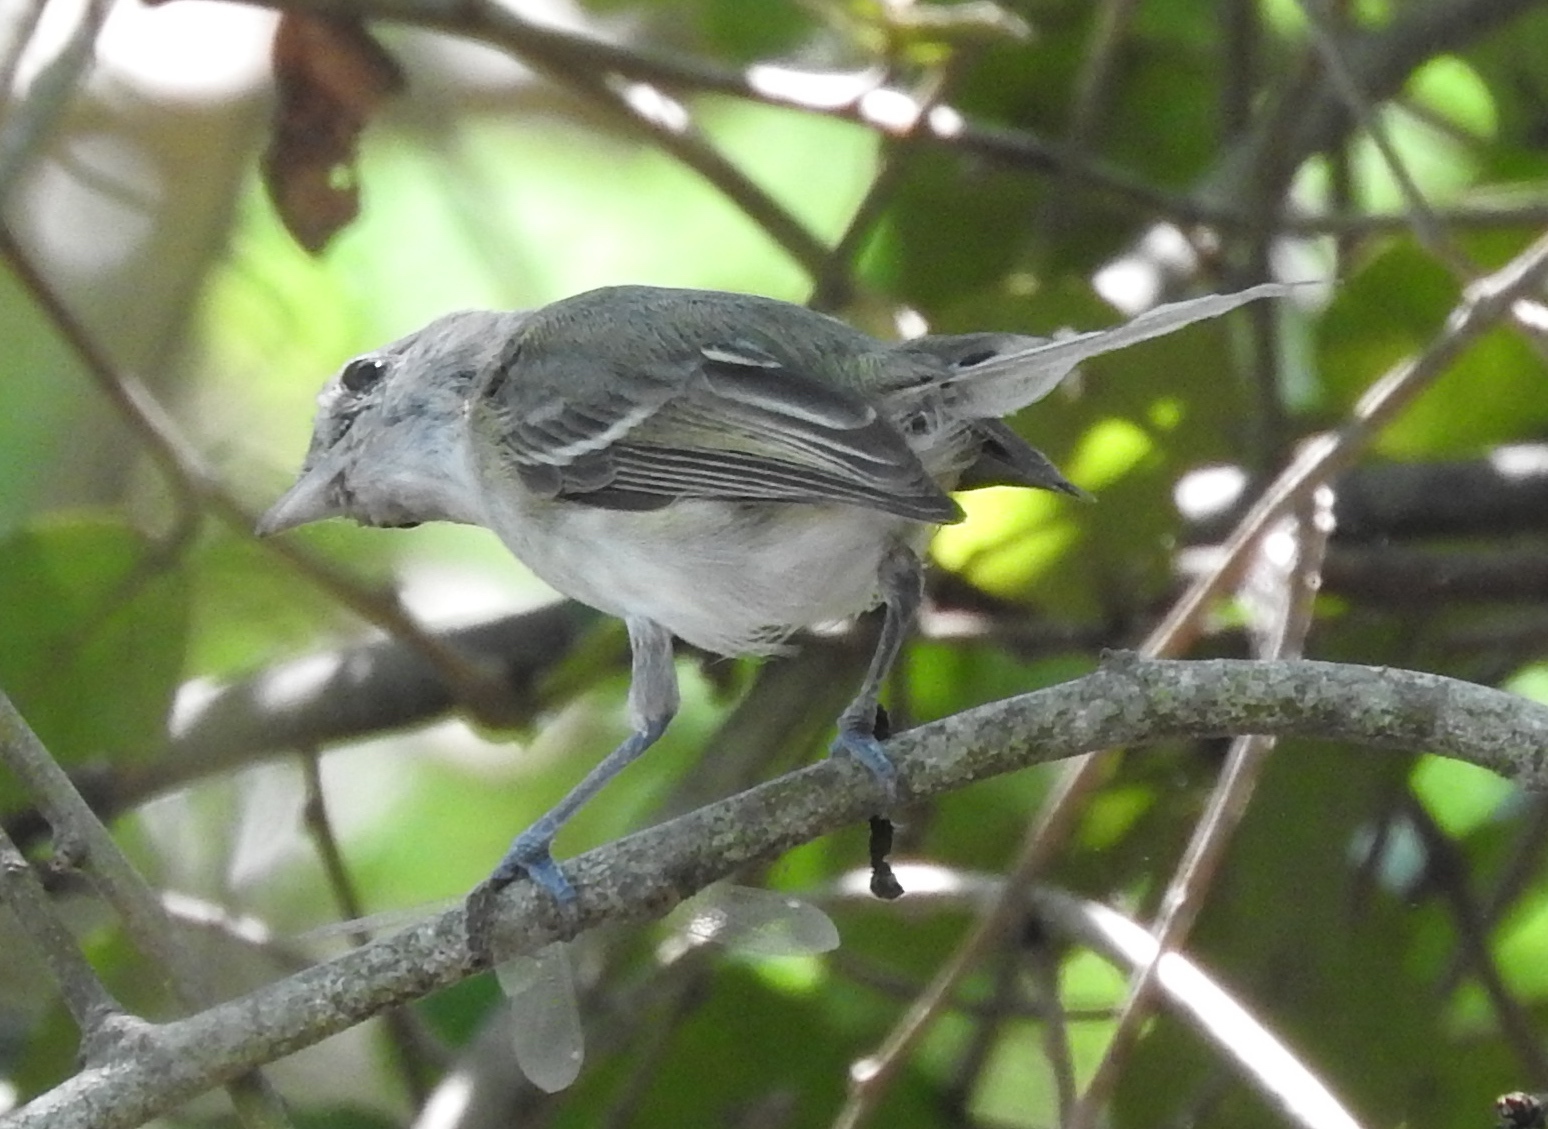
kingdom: Animalia
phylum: Chordata
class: Aves
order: Passeriformes
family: Vireonidae
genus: Vireo
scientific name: Vireo bellii
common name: Bell's vireo
